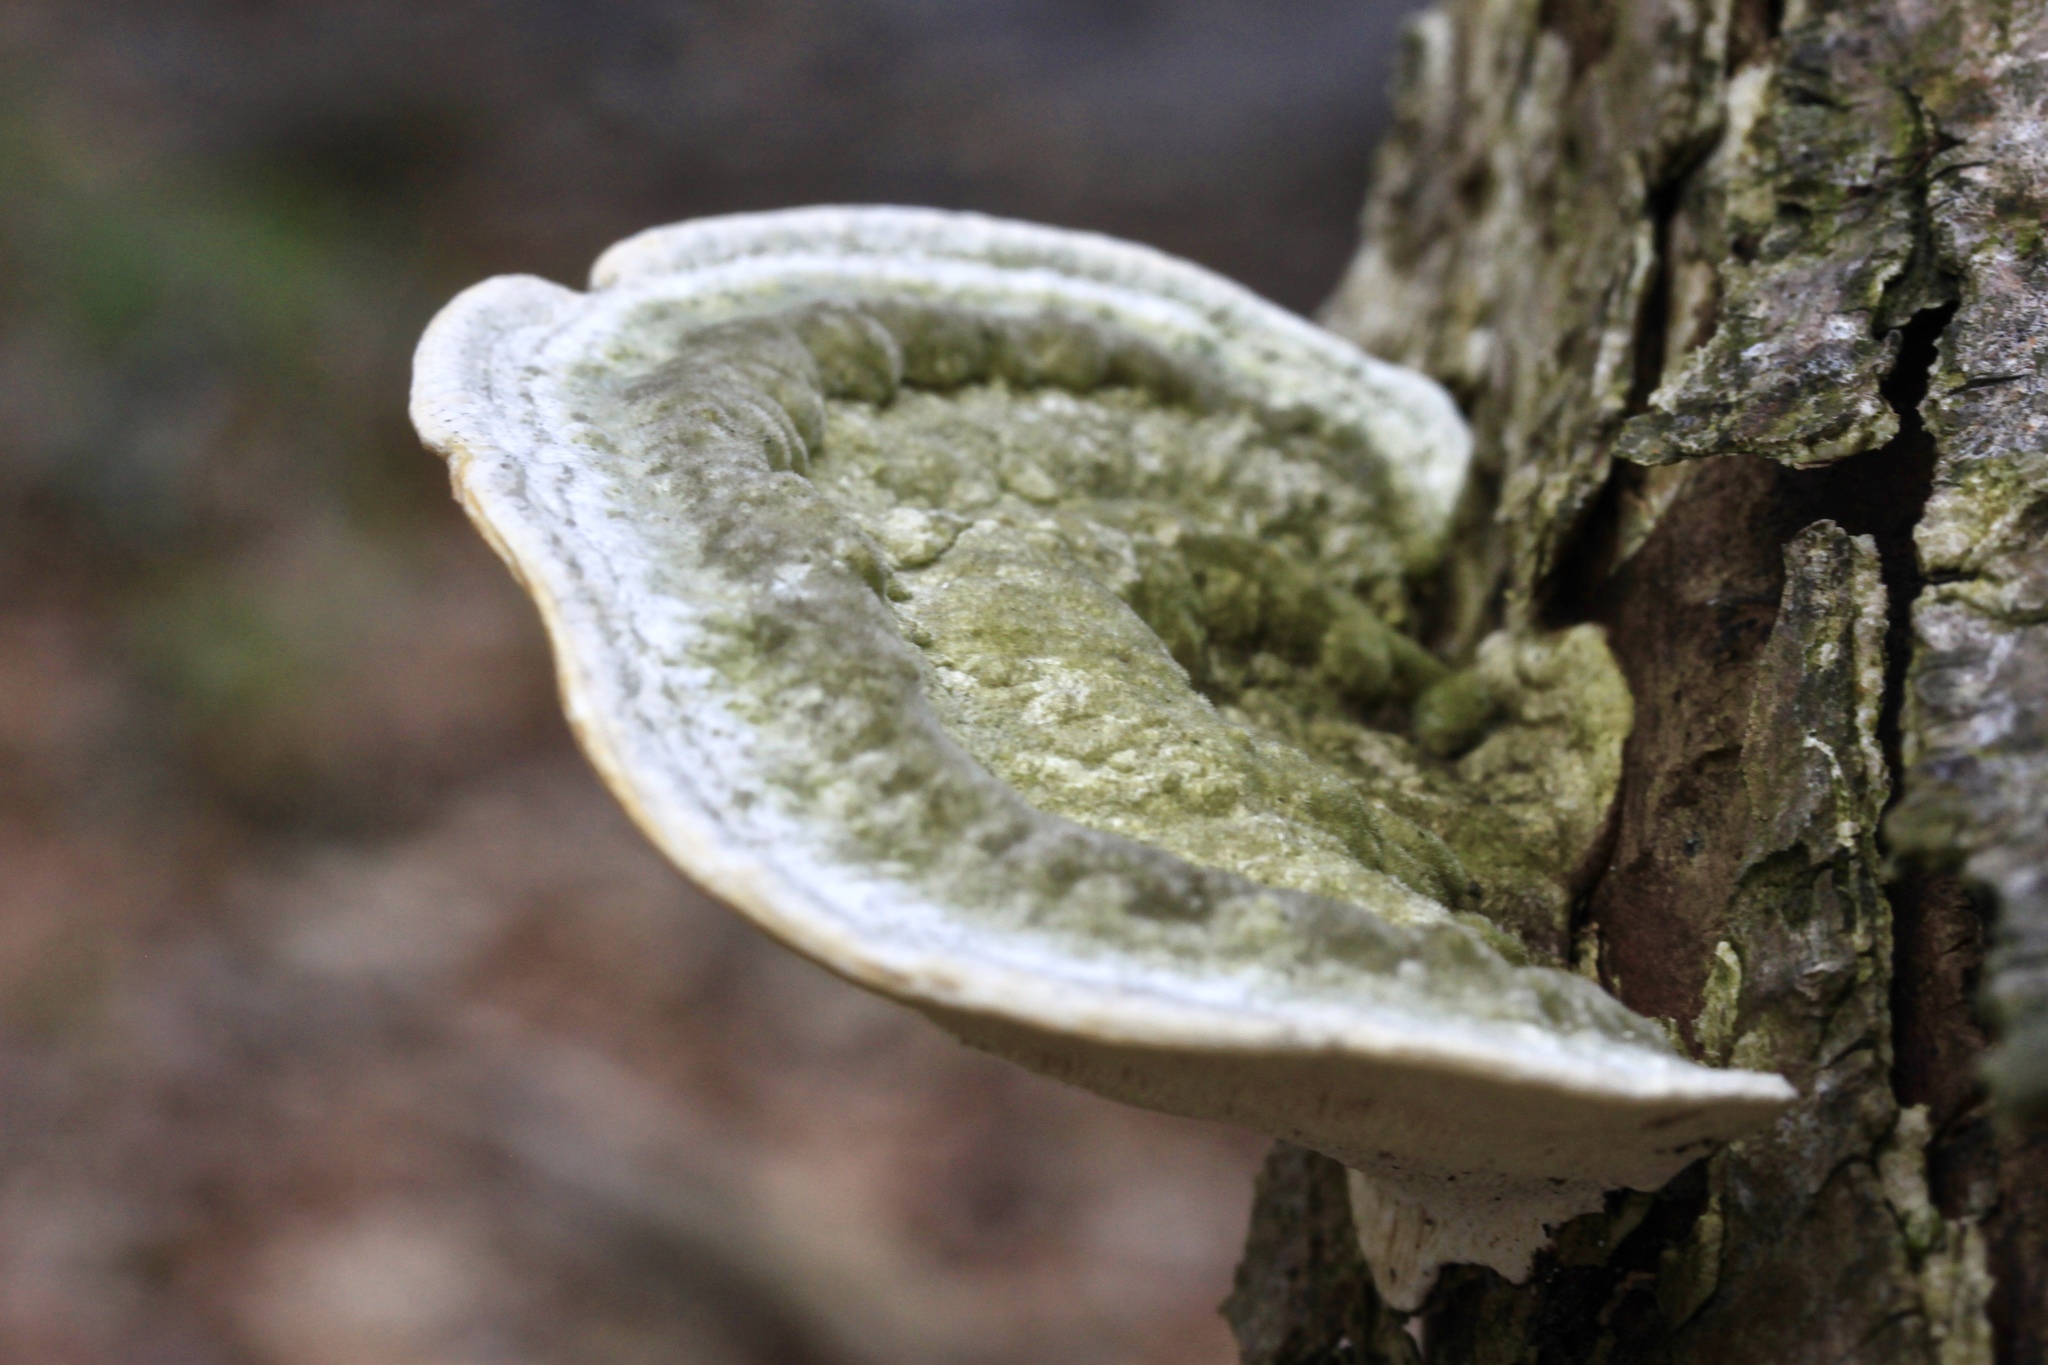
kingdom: Fungi
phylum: Basidiomycota
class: Agaricomycetes
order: Polyporales
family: Polyporaceae
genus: Trametes
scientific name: Trametes gibbosa
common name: Lumpy bracket
